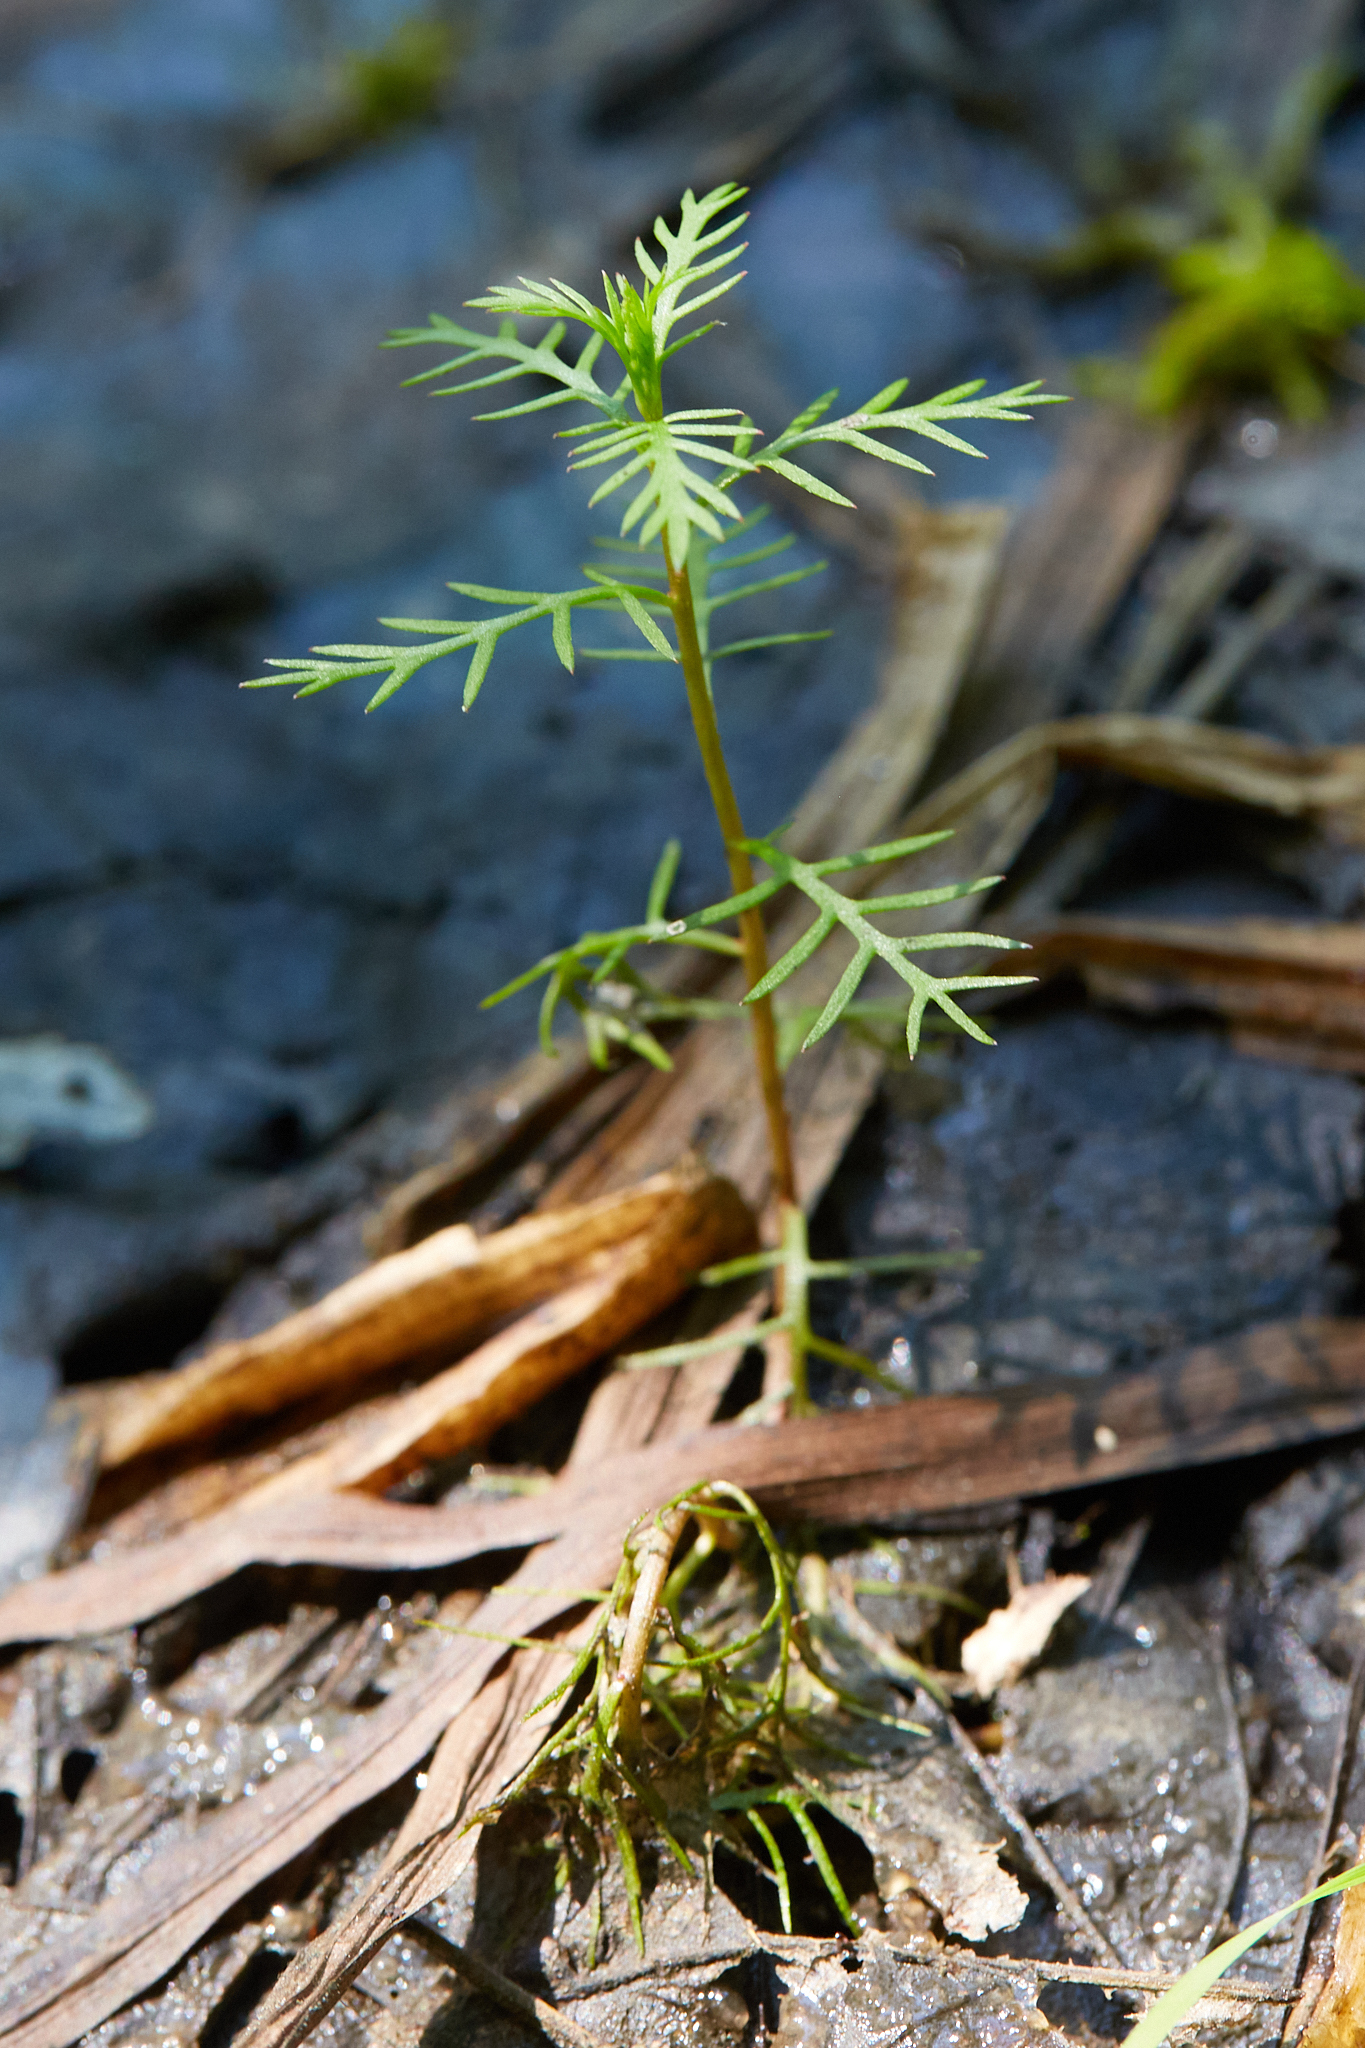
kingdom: Plantae
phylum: Tracheophyta
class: Magnoliopsida
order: Saxifragales
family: Haloragaceae
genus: Proserpinaca
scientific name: Proserpinaca pectinata
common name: Comb-leaved mermaidweed
